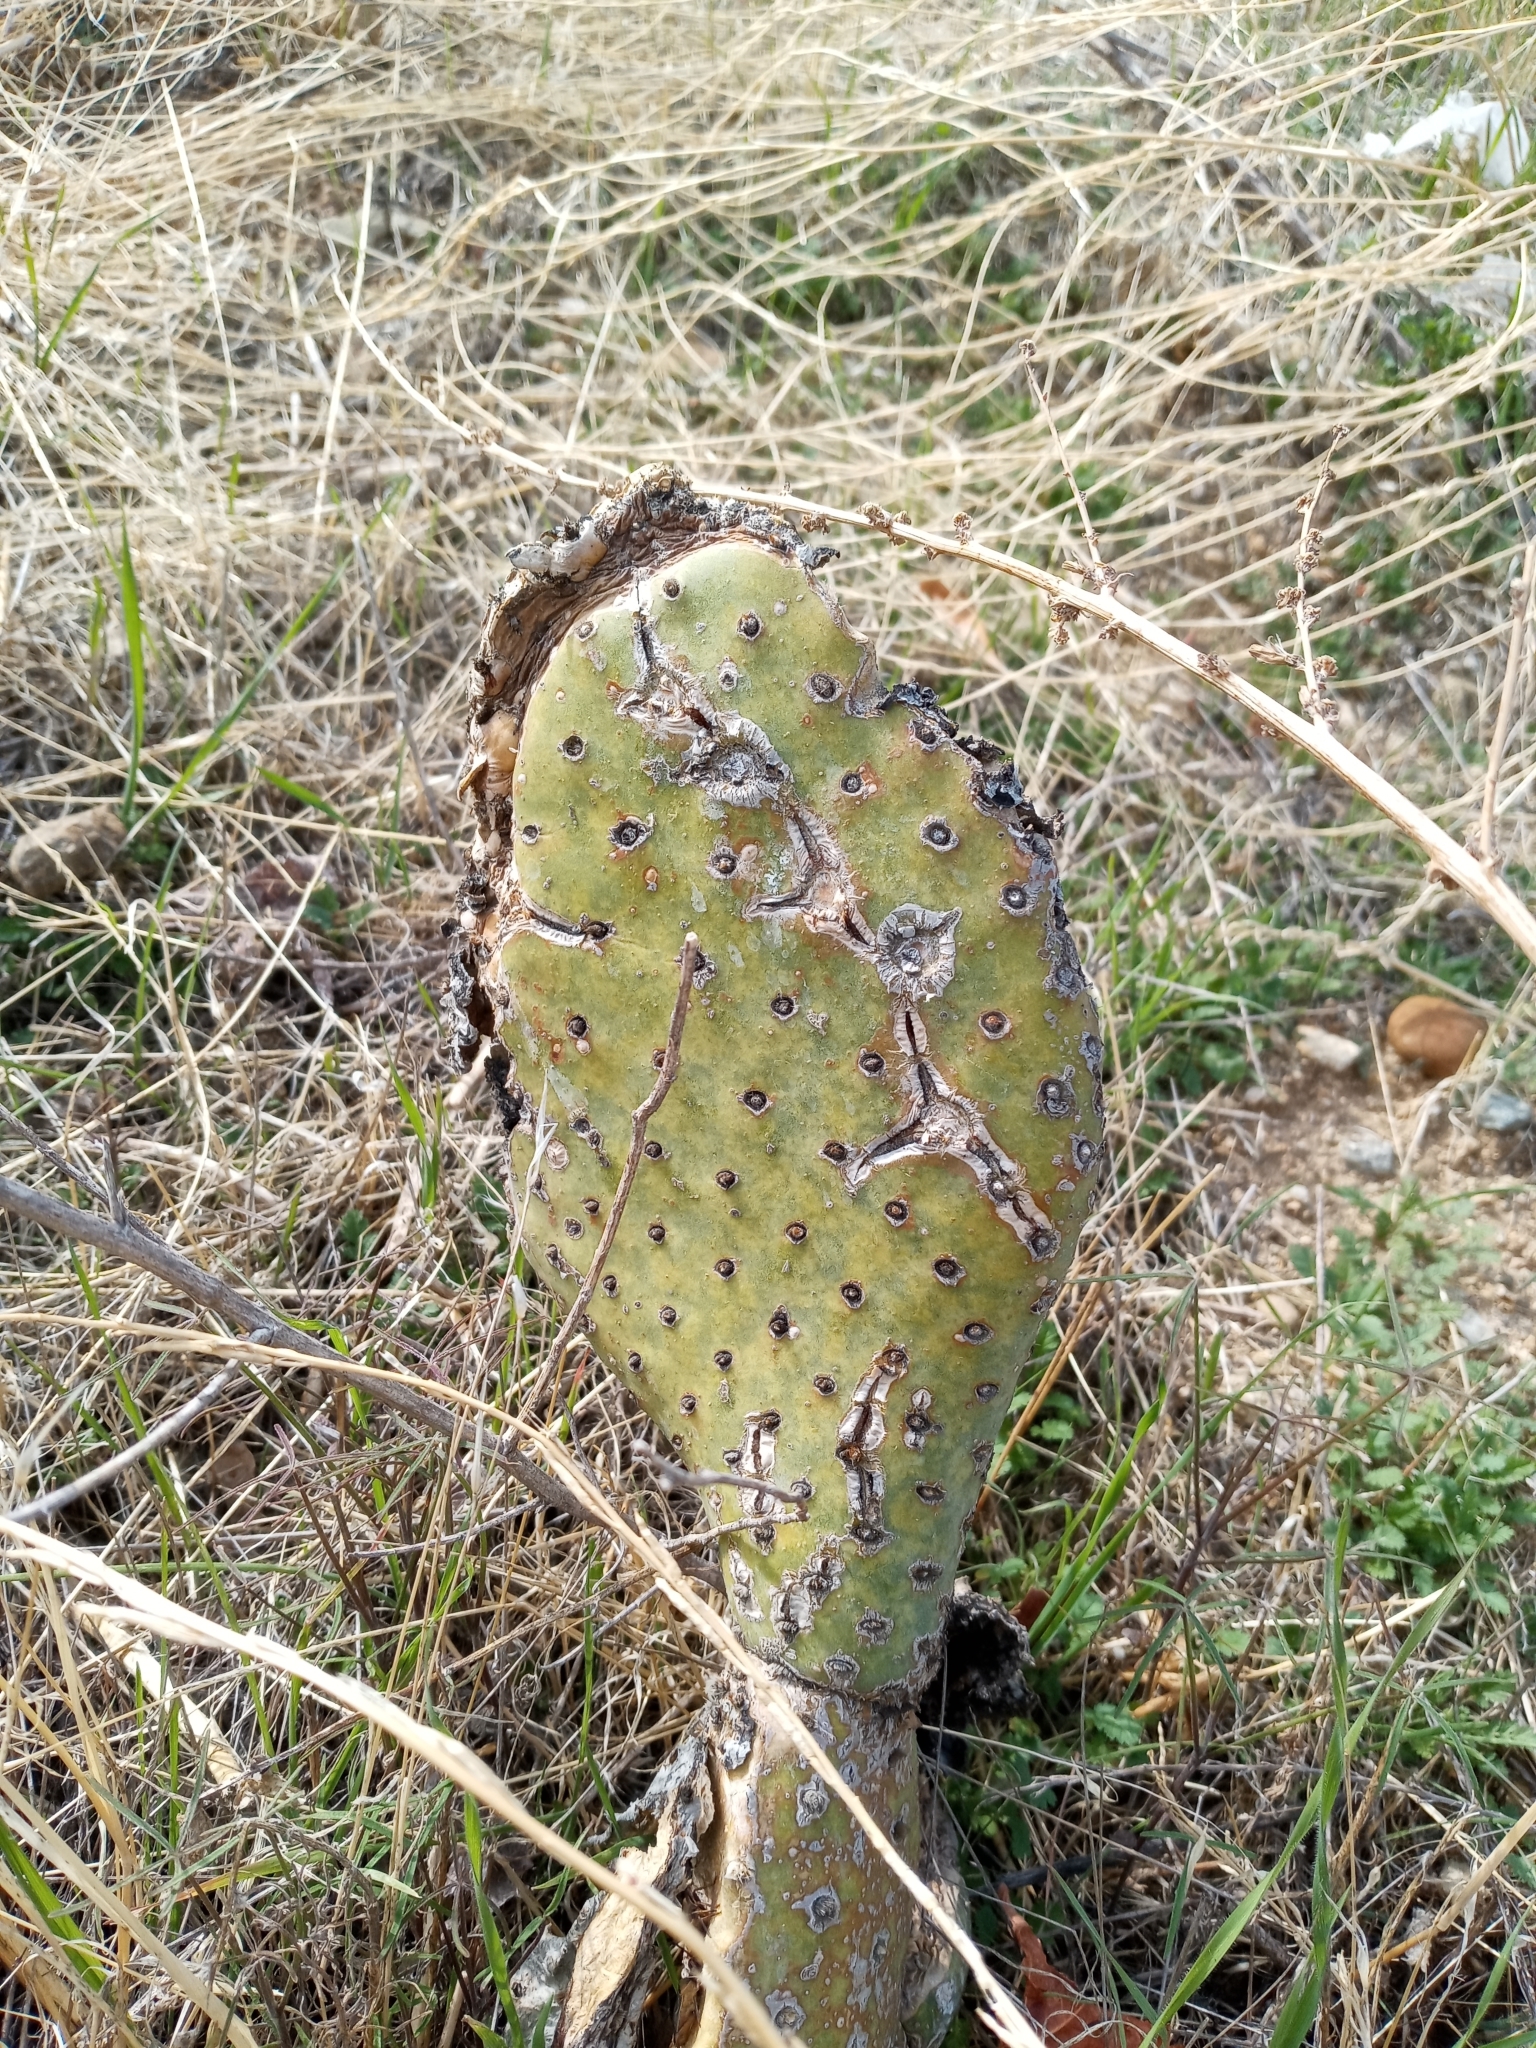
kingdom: Plantae
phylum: Tracheophyta
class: Magnoliopsida
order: Caryophyllales
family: Cactaceae
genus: Opuntia
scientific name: Opuntia basilaris
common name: Beavertail prickly-pear
